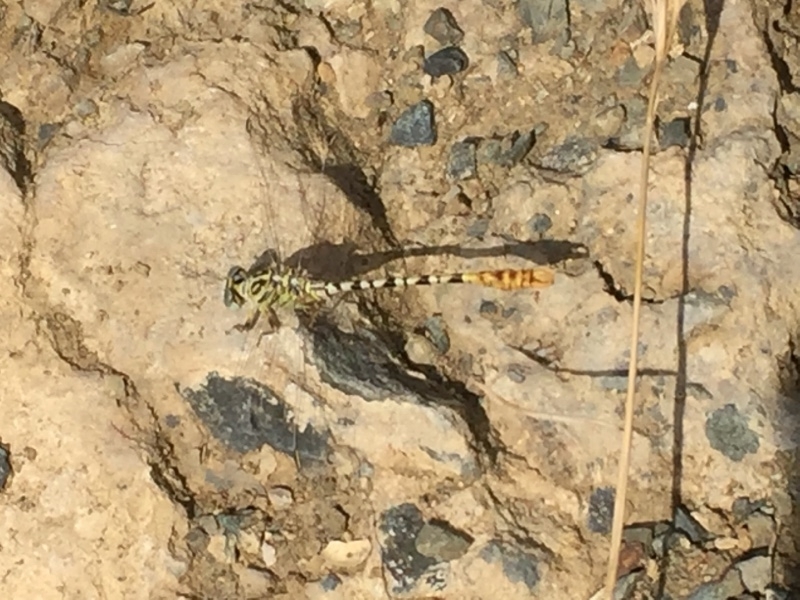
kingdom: Animalia
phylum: Arthropoda
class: Insecta
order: Odonata
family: Gomphidae
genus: Onychogomphus
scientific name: Onychogomphus flexuosus
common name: Waved pincertail
